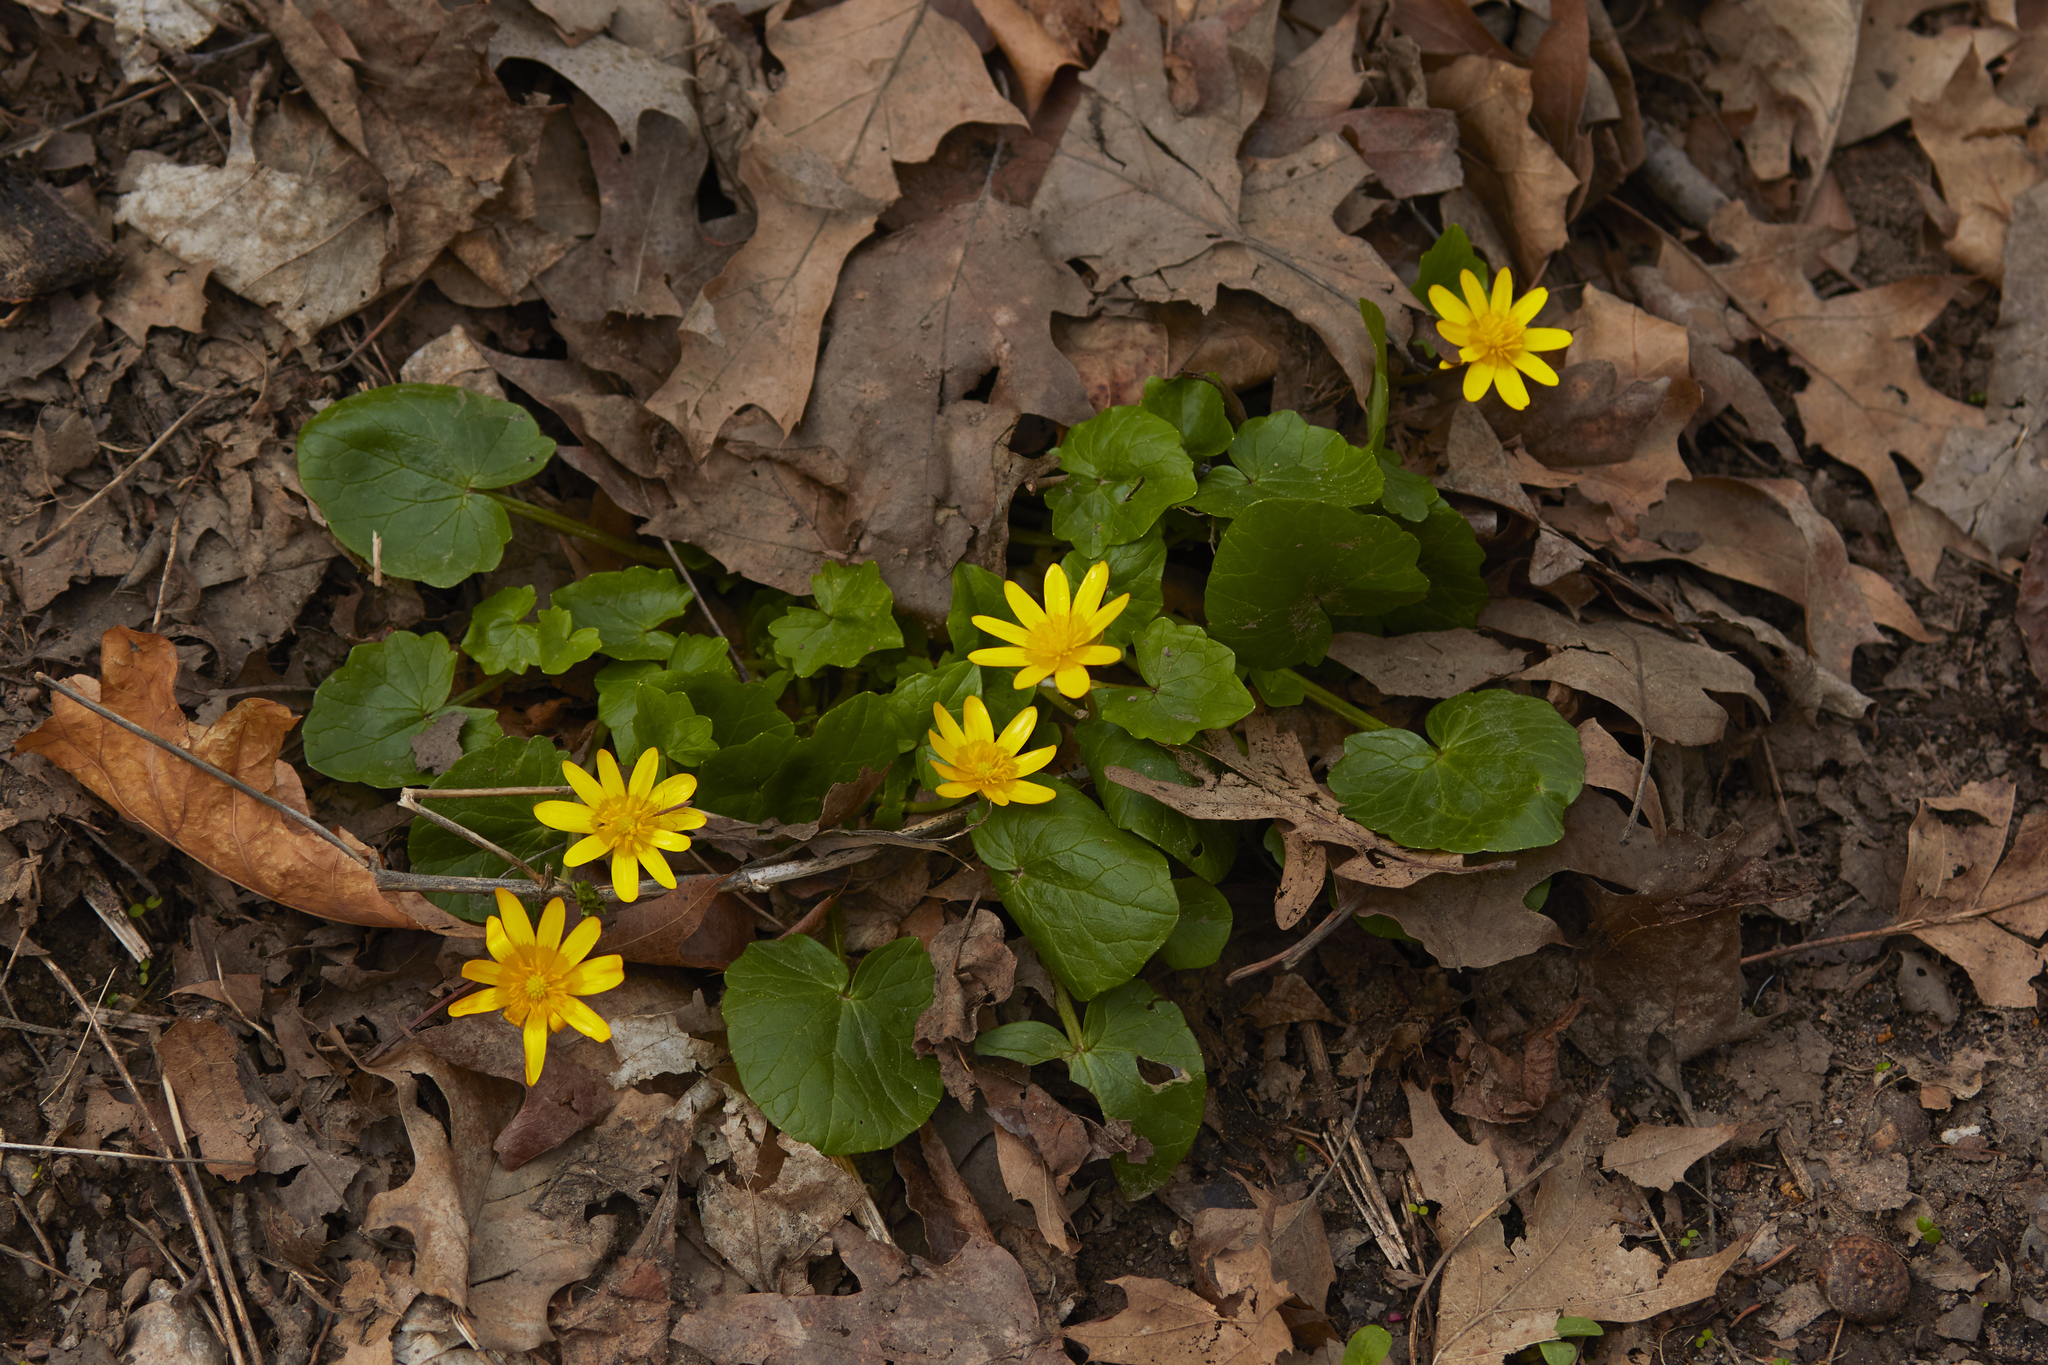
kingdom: Plantae
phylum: Tracheophyta
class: Magnoliopsida
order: Ranunculales
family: Ranunculaceae
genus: Ficaria
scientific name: Ficaria verna
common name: Lesser celandine
